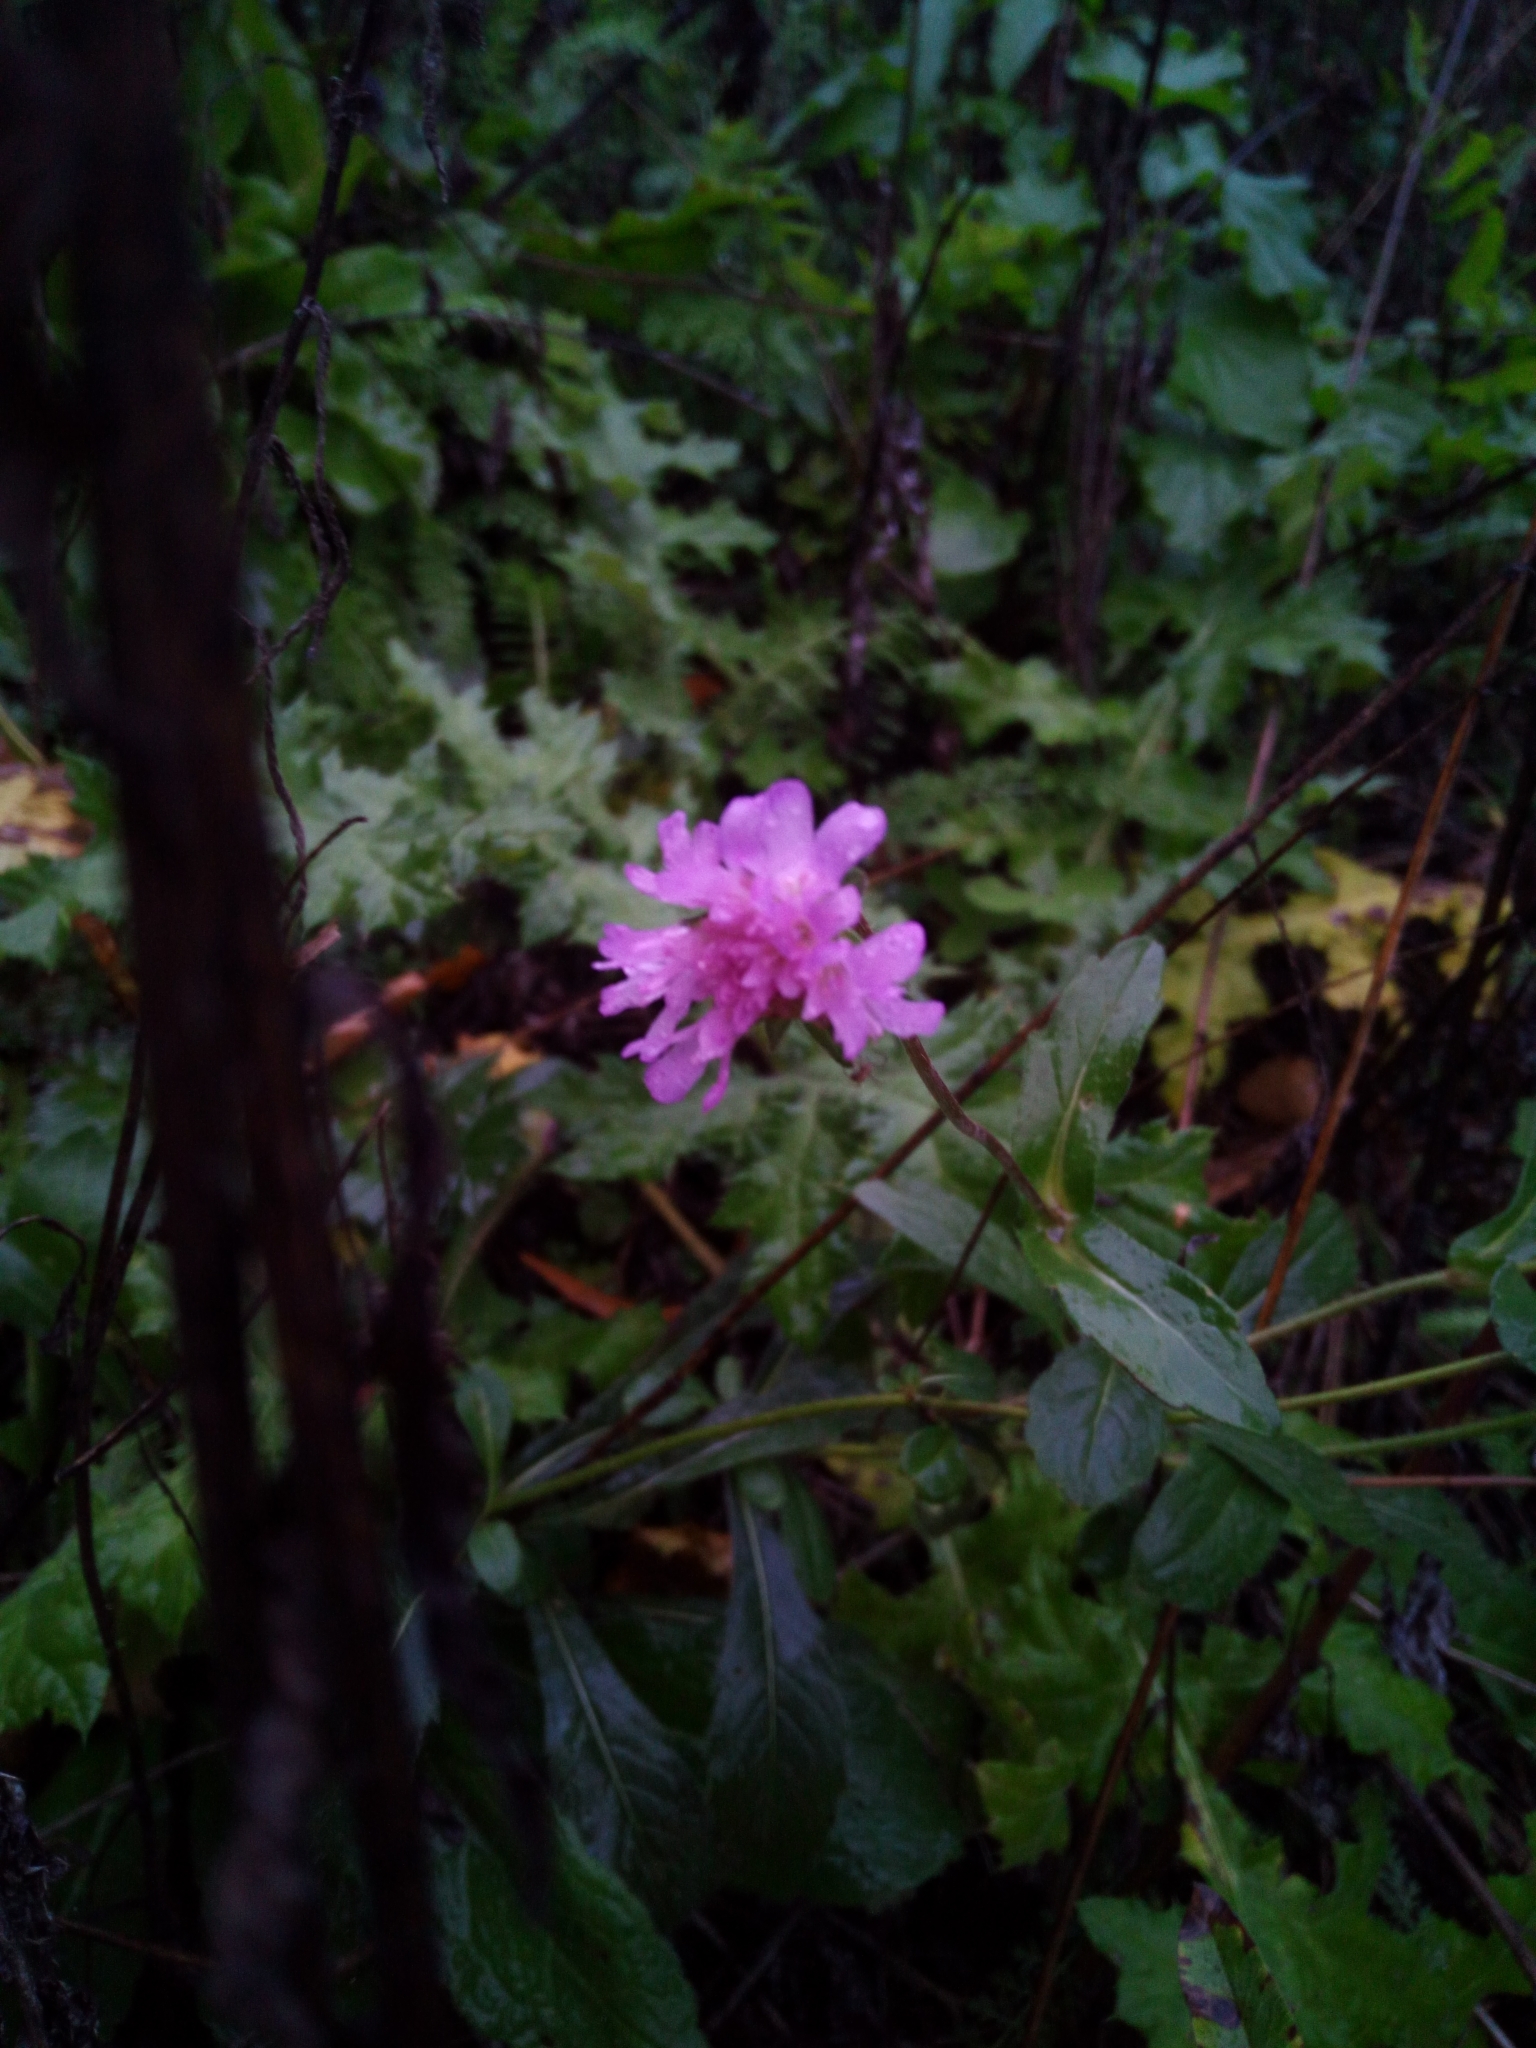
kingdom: Plantae
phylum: Tracheophyta
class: Magnoliopsida
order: Myrtales
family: Lythraceae
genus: Lythrum
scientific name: Lythrum salicaria
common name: Purple loosestrife
